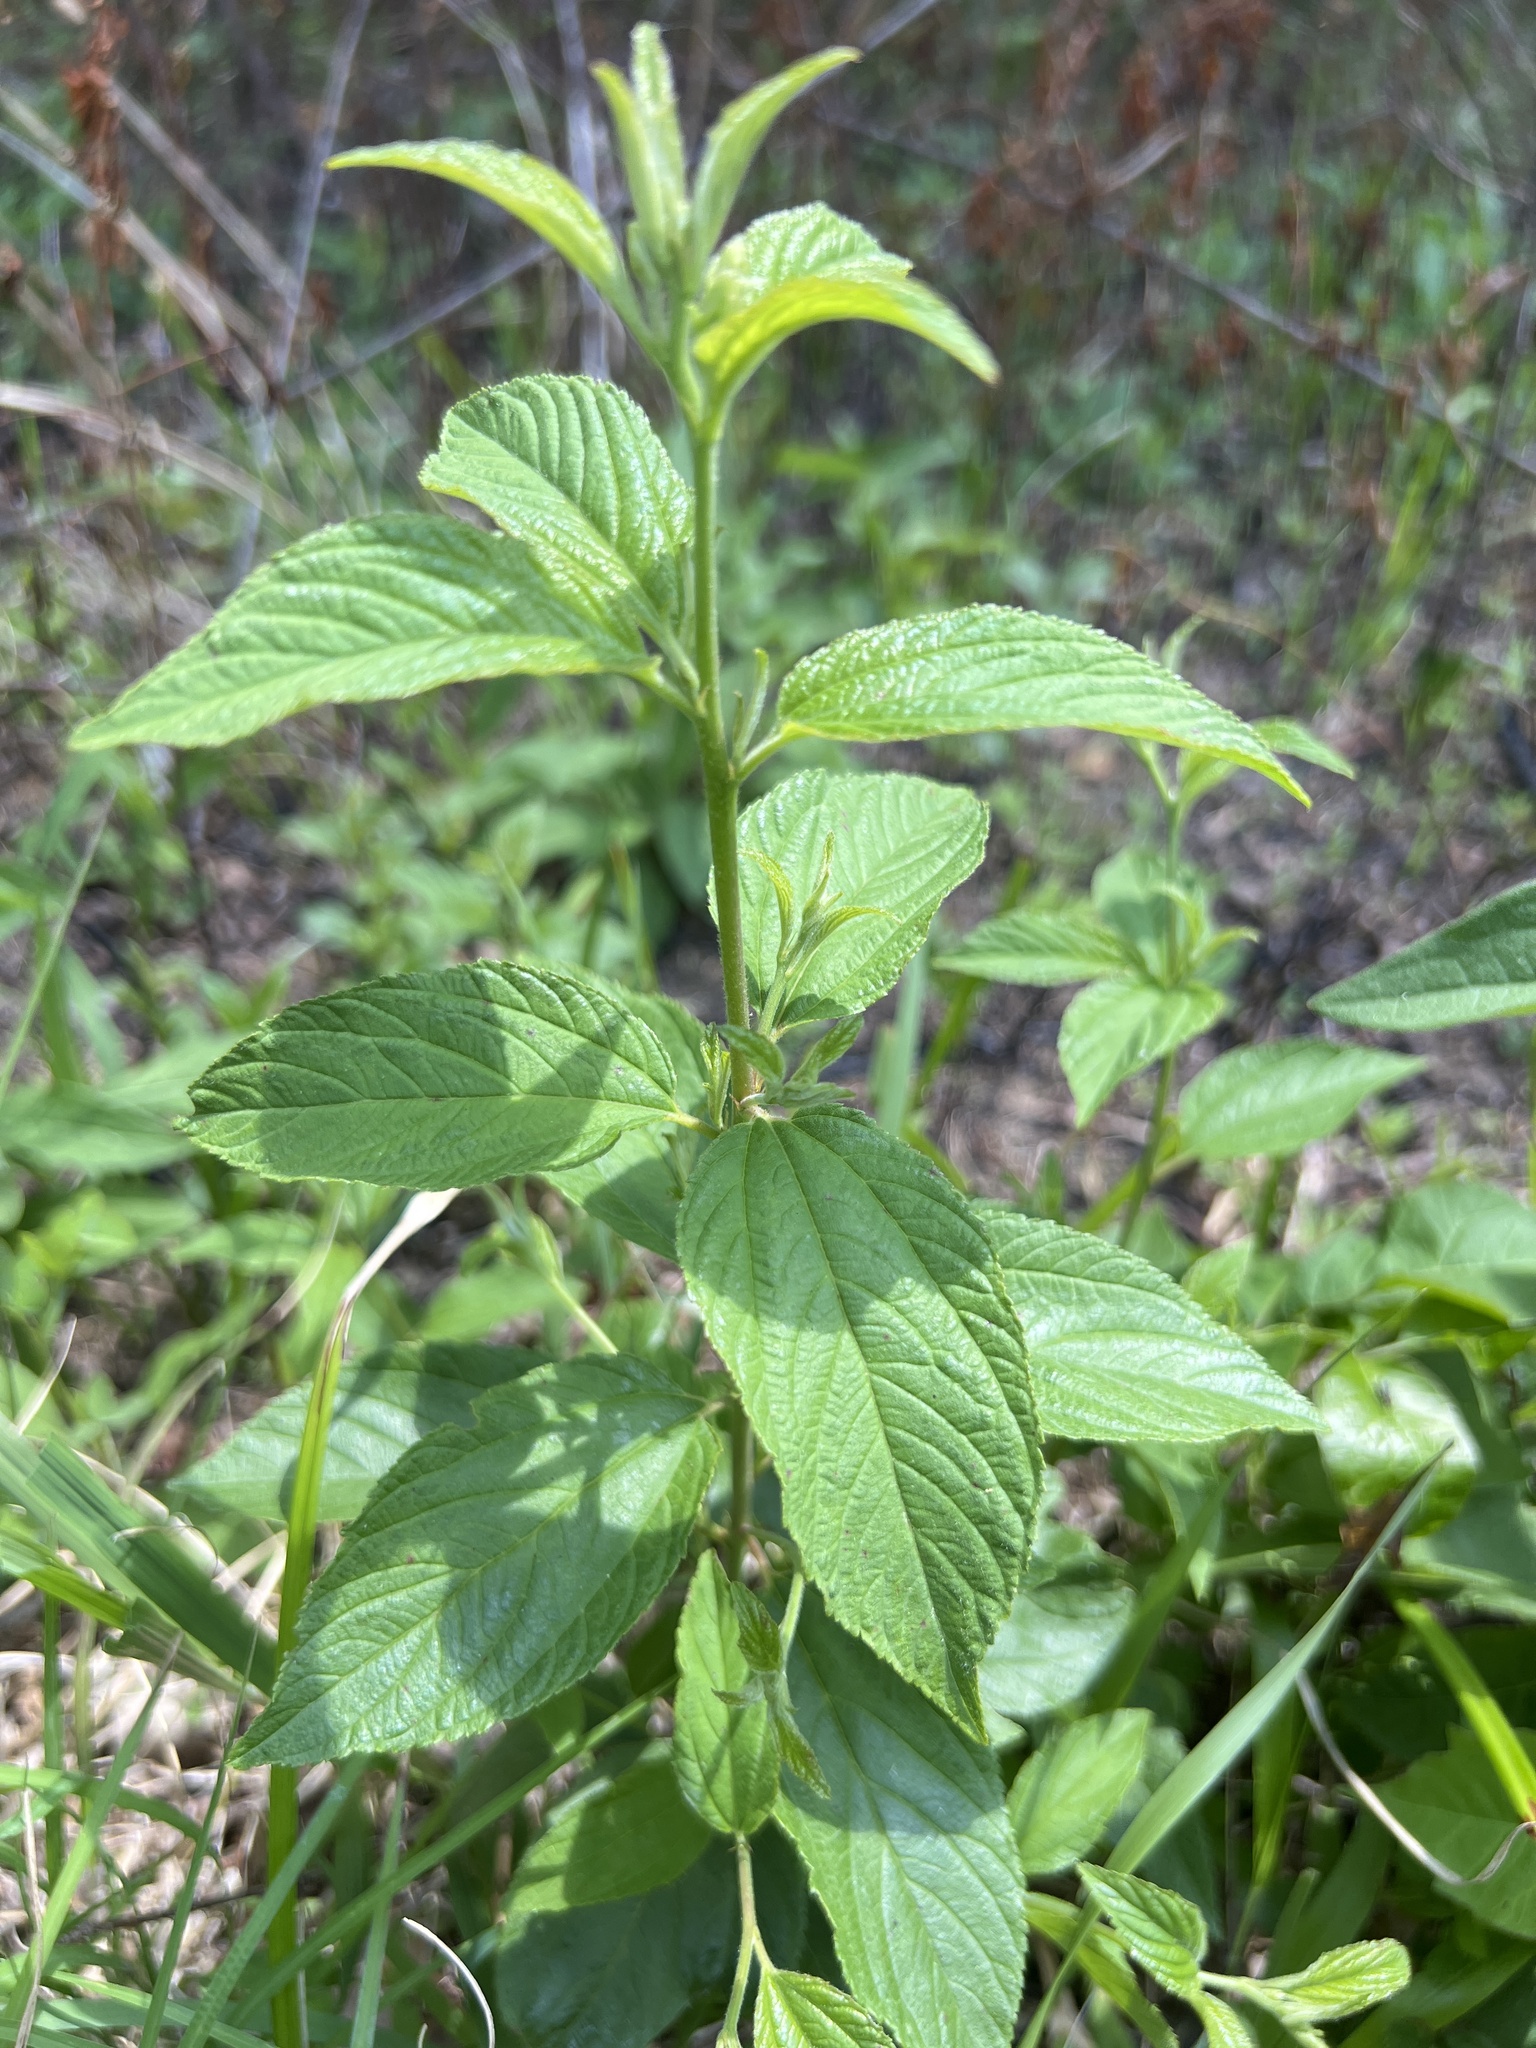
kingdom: Plantae
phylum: Tracheophyta
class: Magnoliopsida
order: Rosales
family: Rhamnaceae
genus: Ceanothus
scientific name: Ceanothus americanus
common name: Redroot
